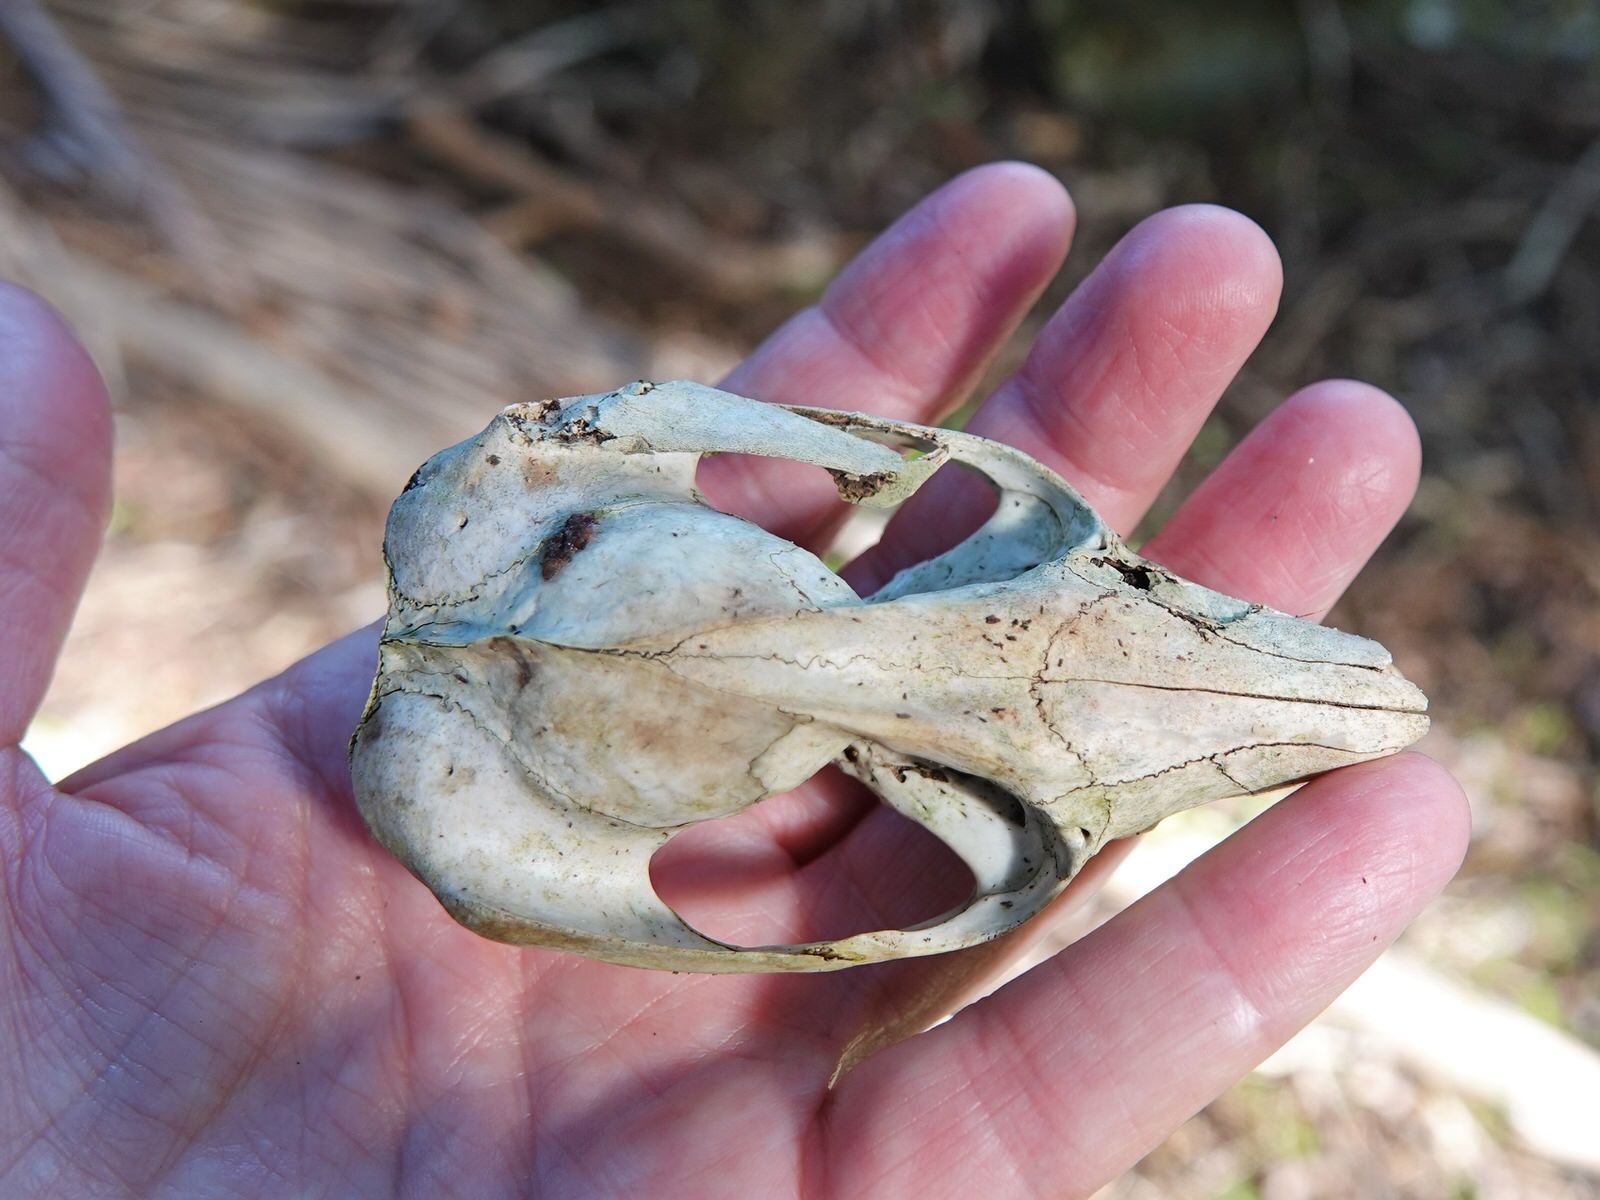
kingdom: Animalia
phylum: Chordata
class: Mammalia
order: Diprotodontia
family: Phalangeridae
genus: Trichosurus
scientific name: Trichosurus vulpecula
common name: Common brushtail
